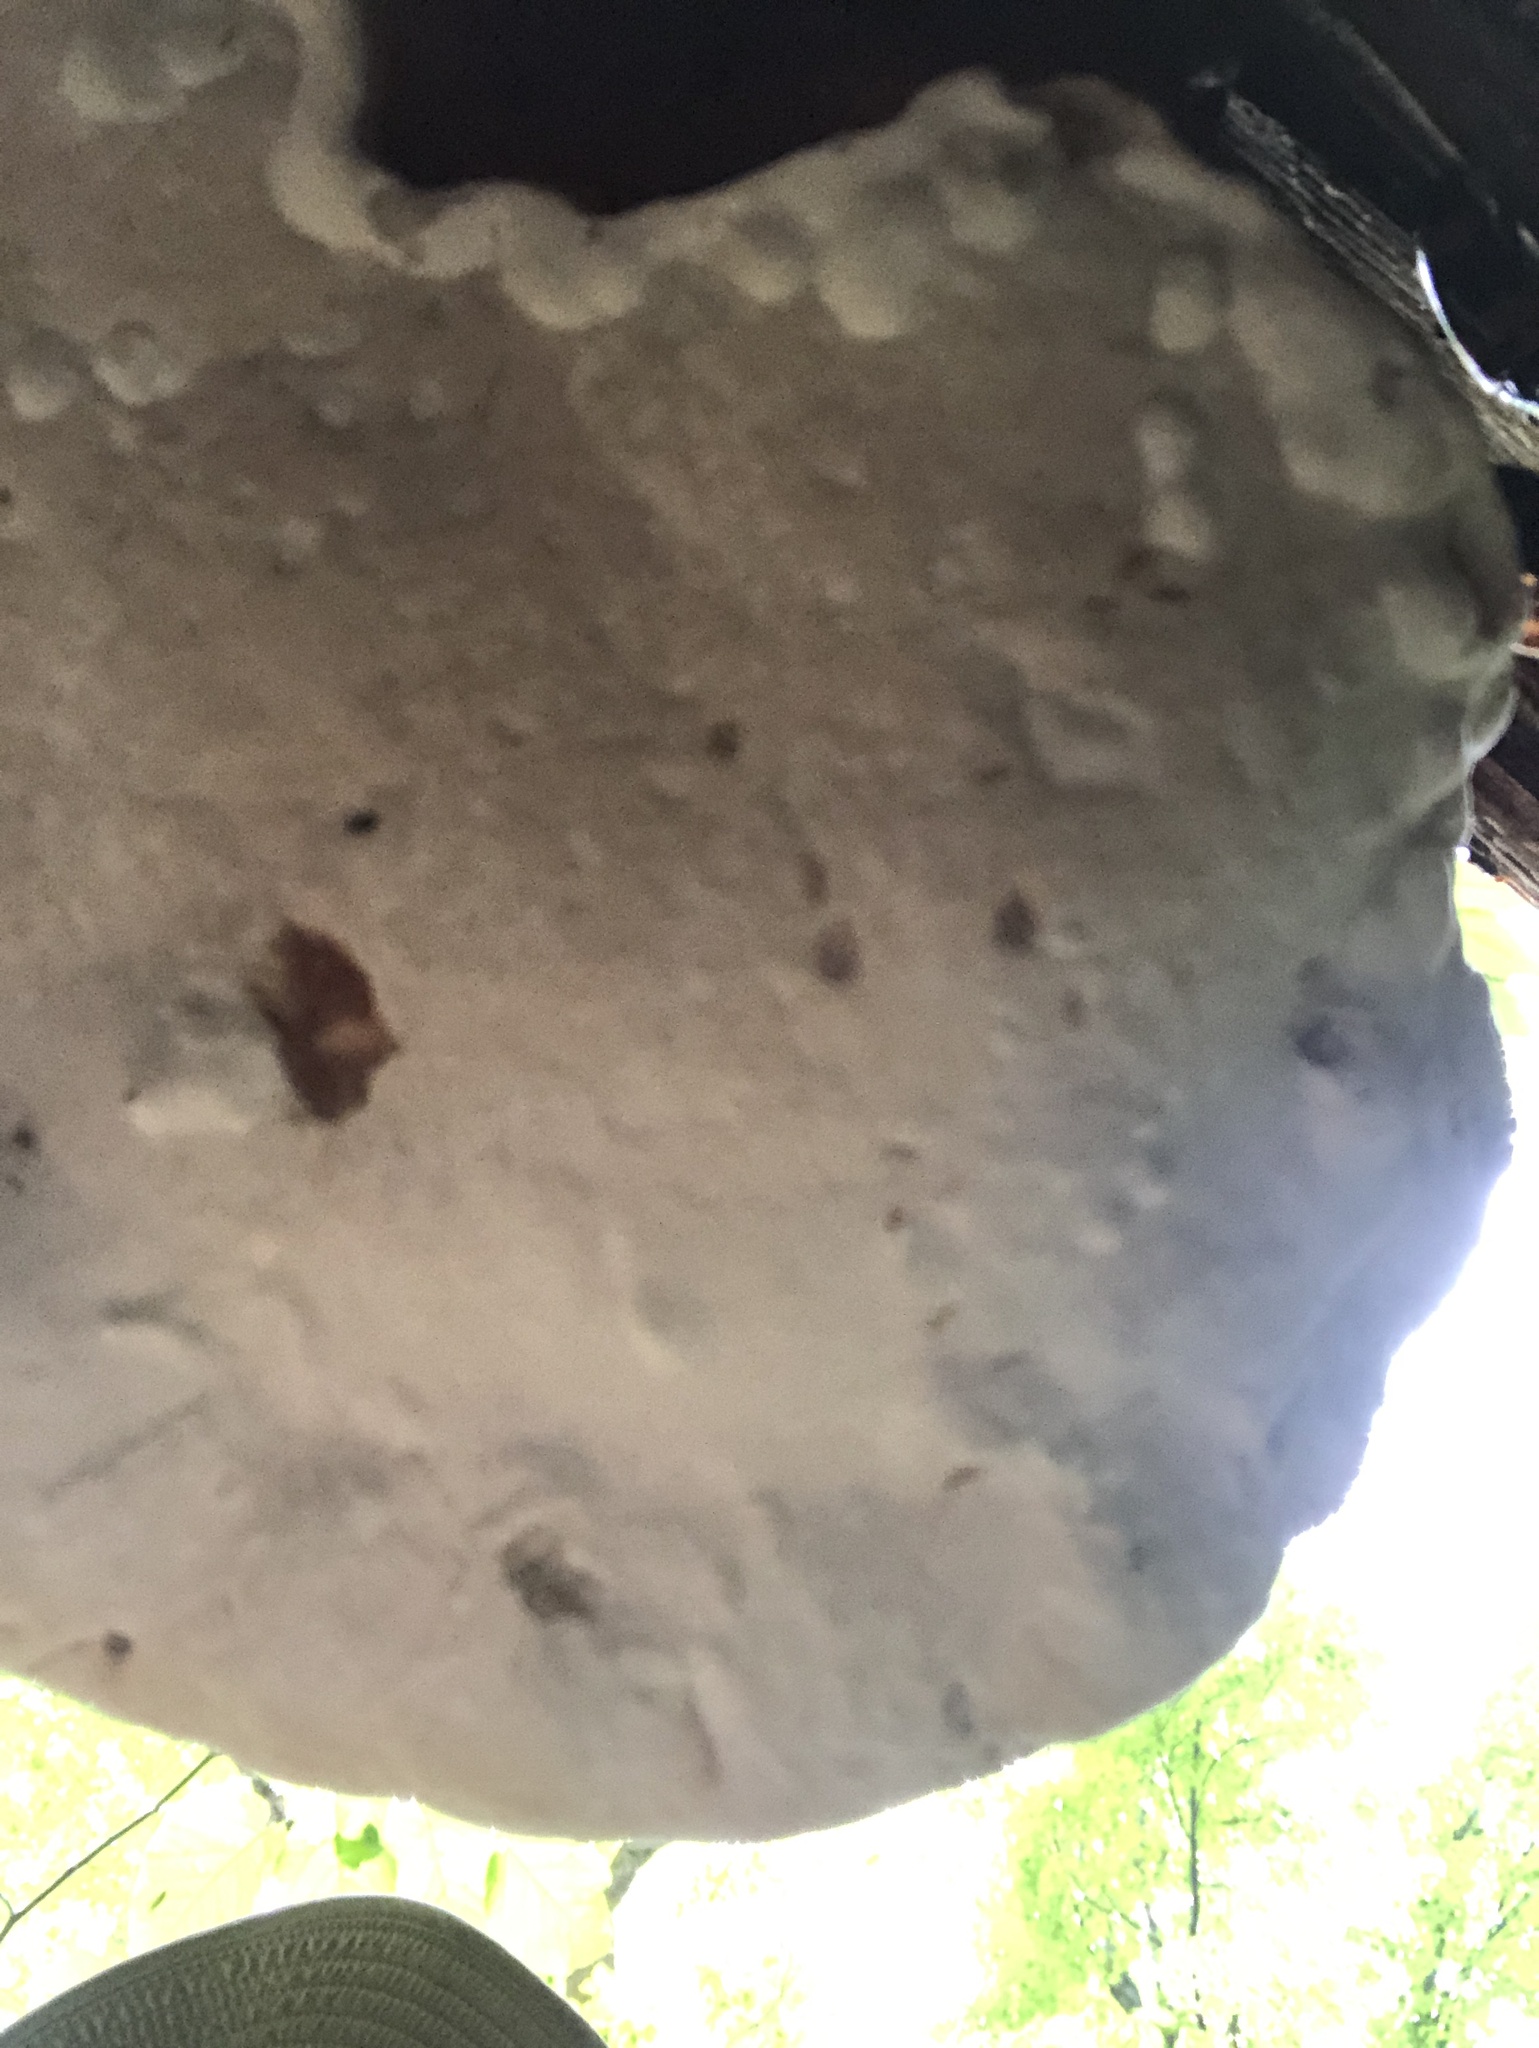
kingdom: Fungi
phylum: Basidiomycota
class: Agaricomycetes
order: Polyporales
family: Polyporaceae
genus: Ganoderma
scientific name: Ganoderma tsugae
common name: Hemlock varnish shelf
